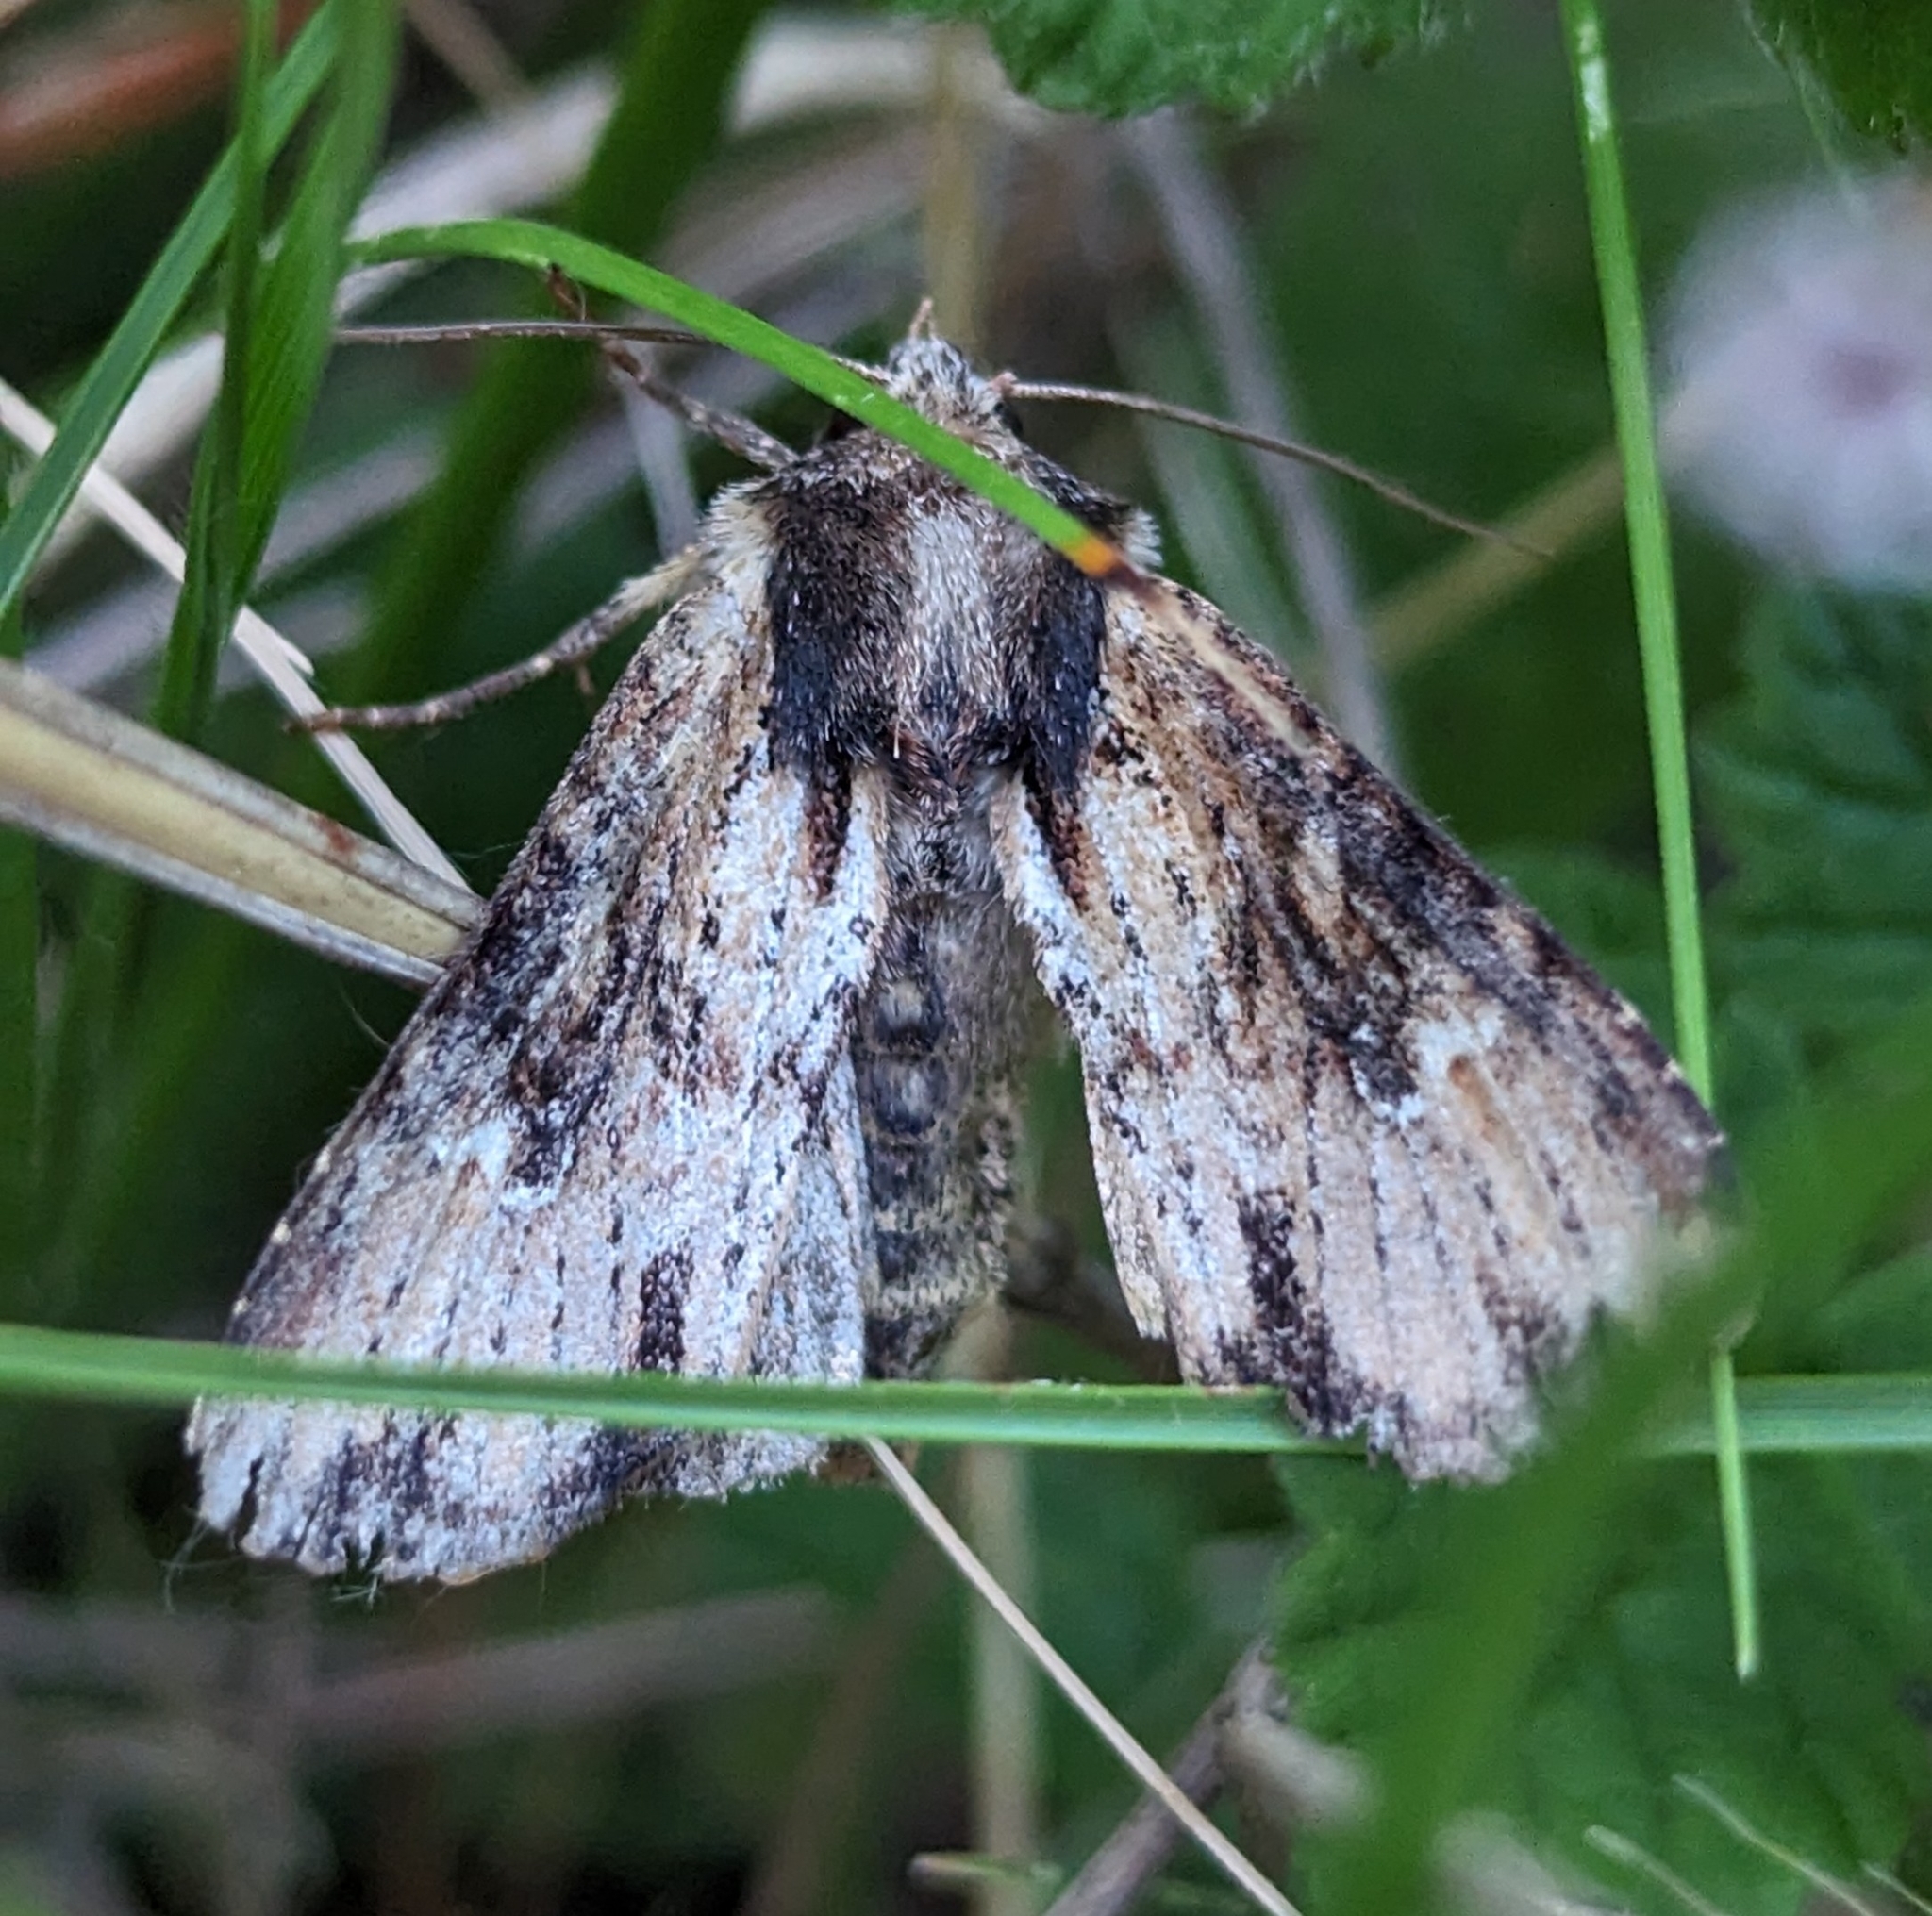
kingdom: Animalia
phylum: Arthropoda
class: Insecta
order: Lepidoptera
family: Noctuidae
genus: Apamea
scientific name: Apamea vultuosa
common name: Airy apamea moth
